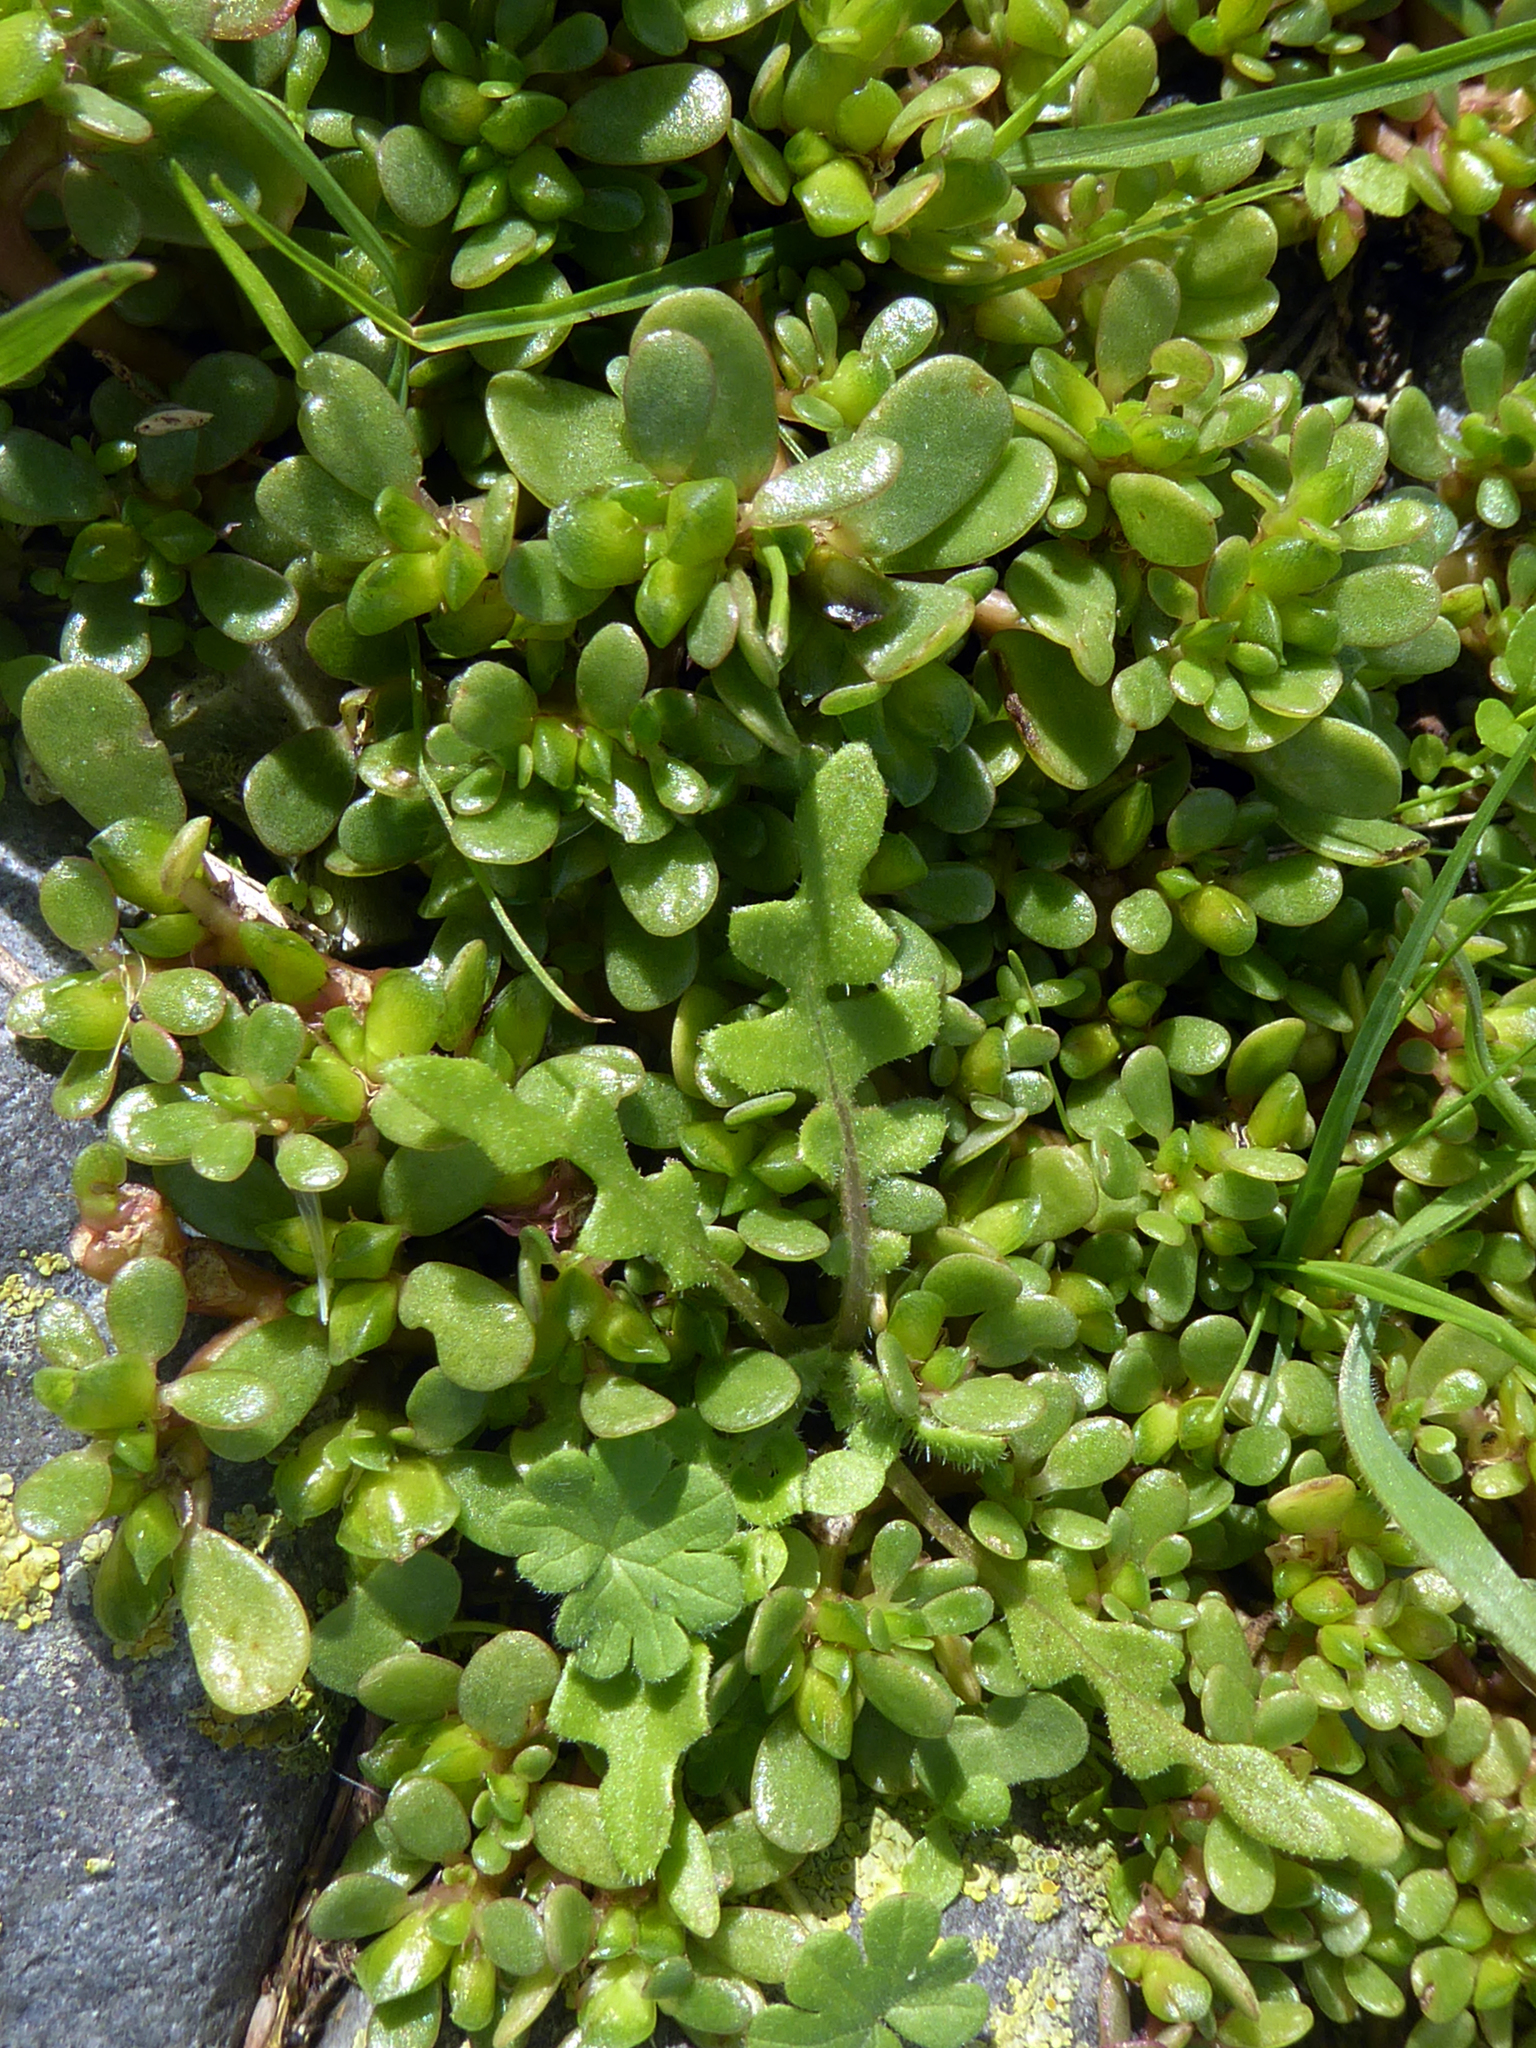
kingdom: Plantae
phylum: Tracheophyta
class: Magnoliopsida
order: Caryophyllales
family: Portulacaceae
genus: Portulaca
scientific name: Portulaca oleracea
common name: Common purslane
